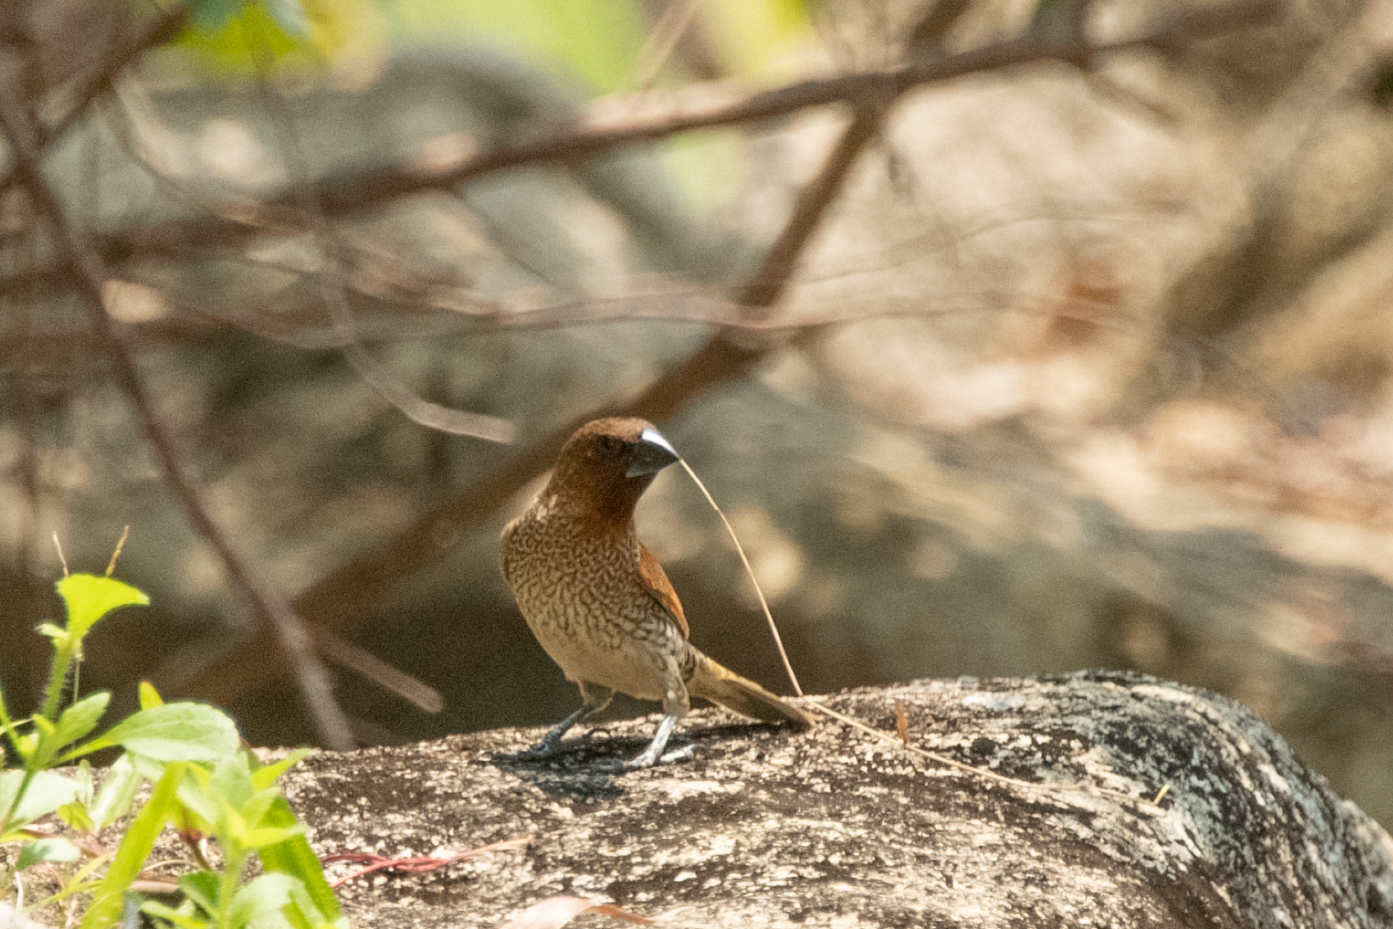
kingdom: Animalia
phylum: Chordata
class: Aves
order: Passeriformes
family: Estrildidae
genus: Lonchura
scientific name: Lonchura punctulata
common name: Scaly-breasted munia
